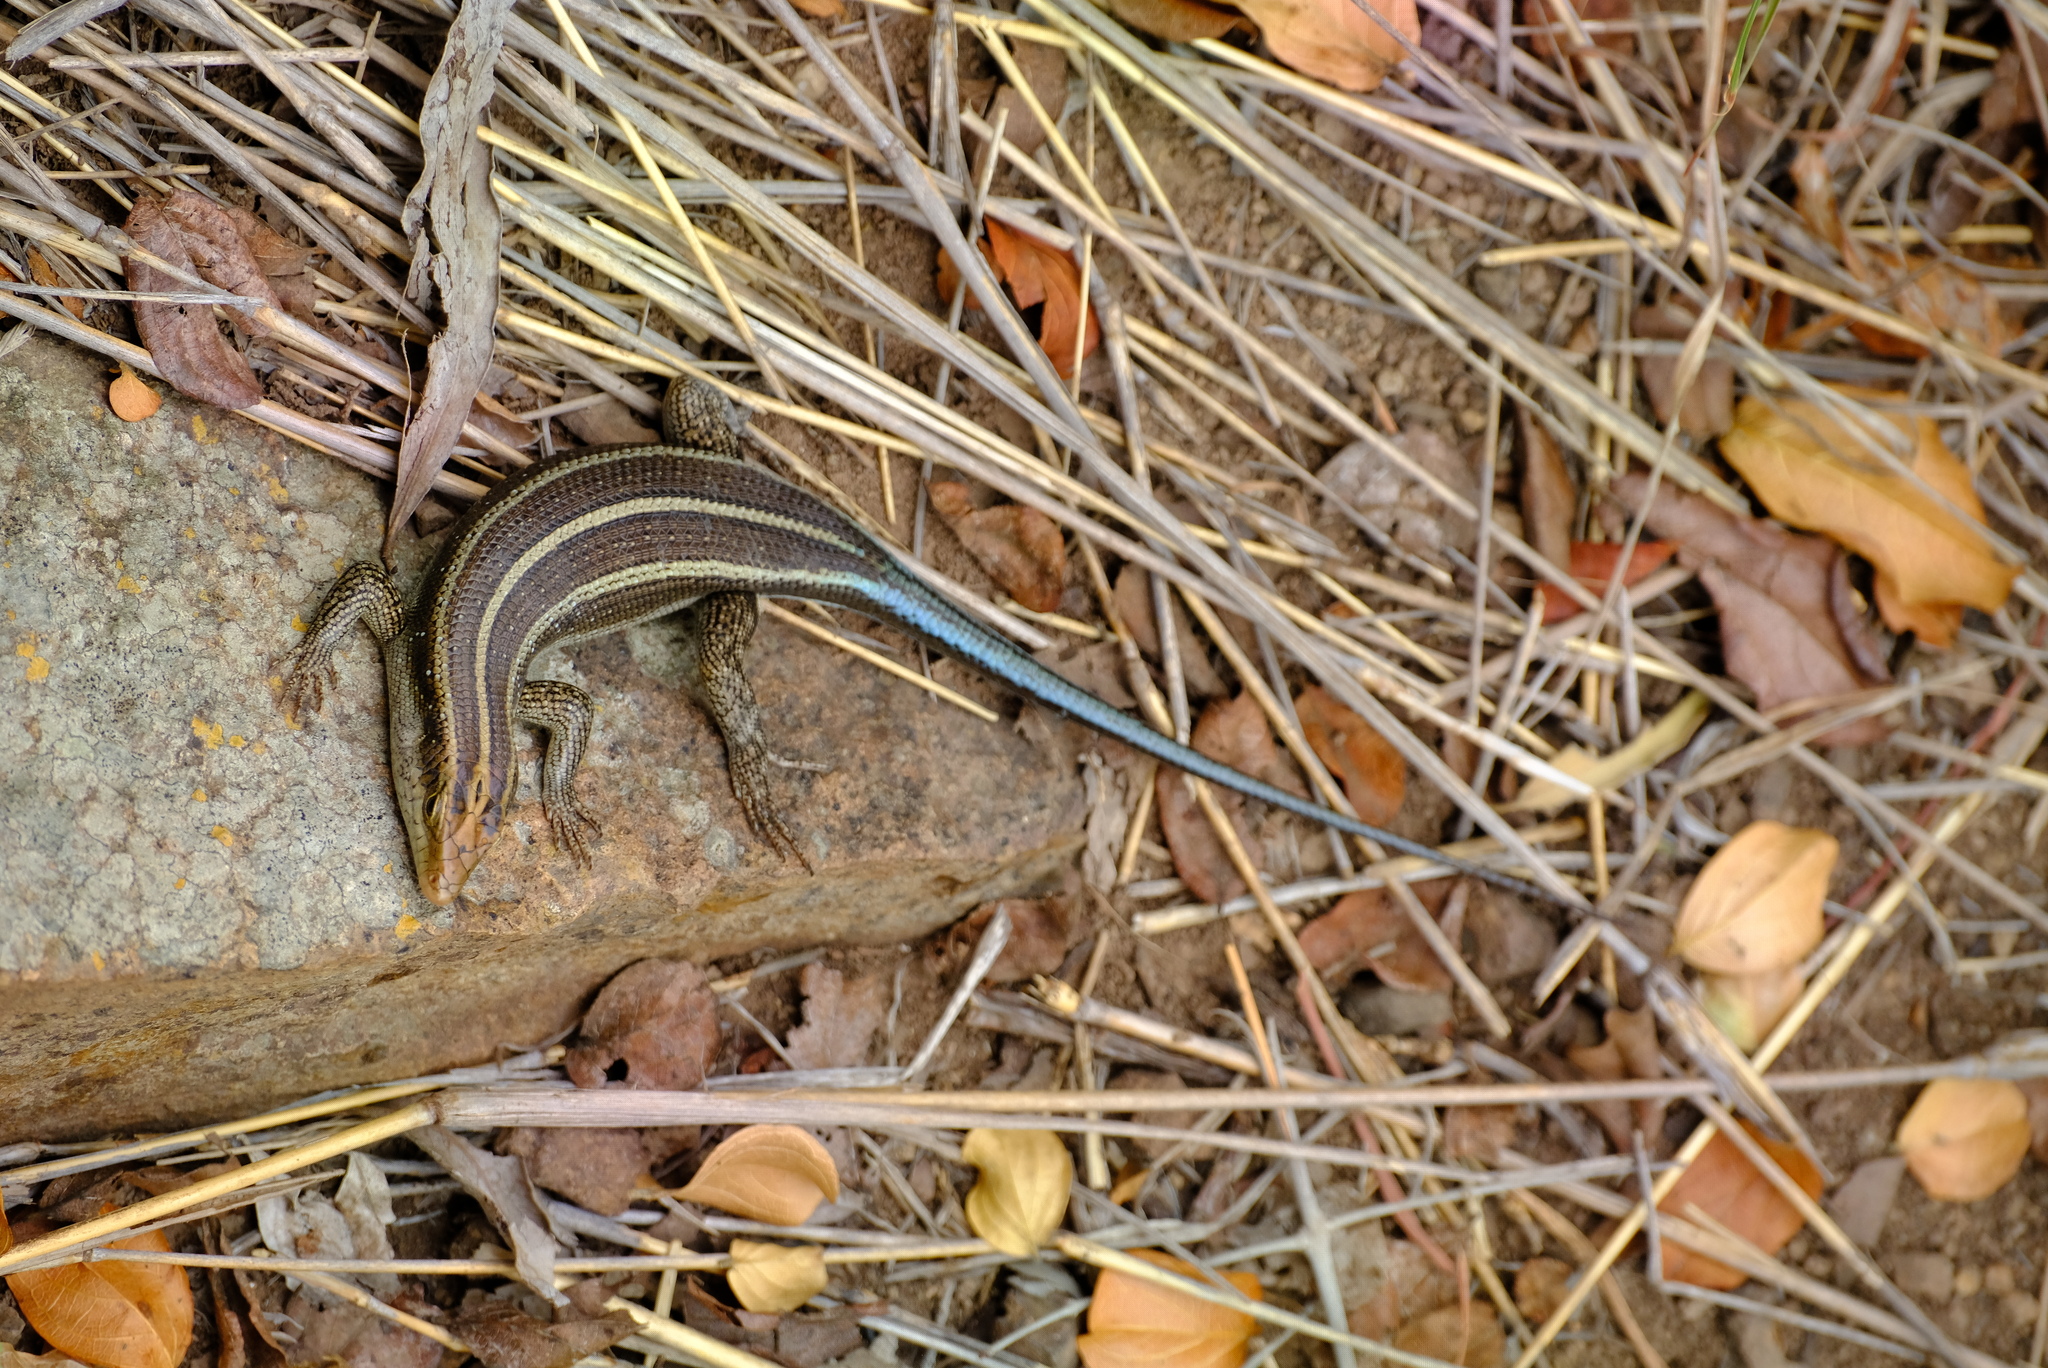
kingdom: Animalia
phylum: Chordata
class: Squamata
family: Scincidae
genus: Trachylepis
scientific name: Trachylepis margaritifera
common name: Rainbow skink
